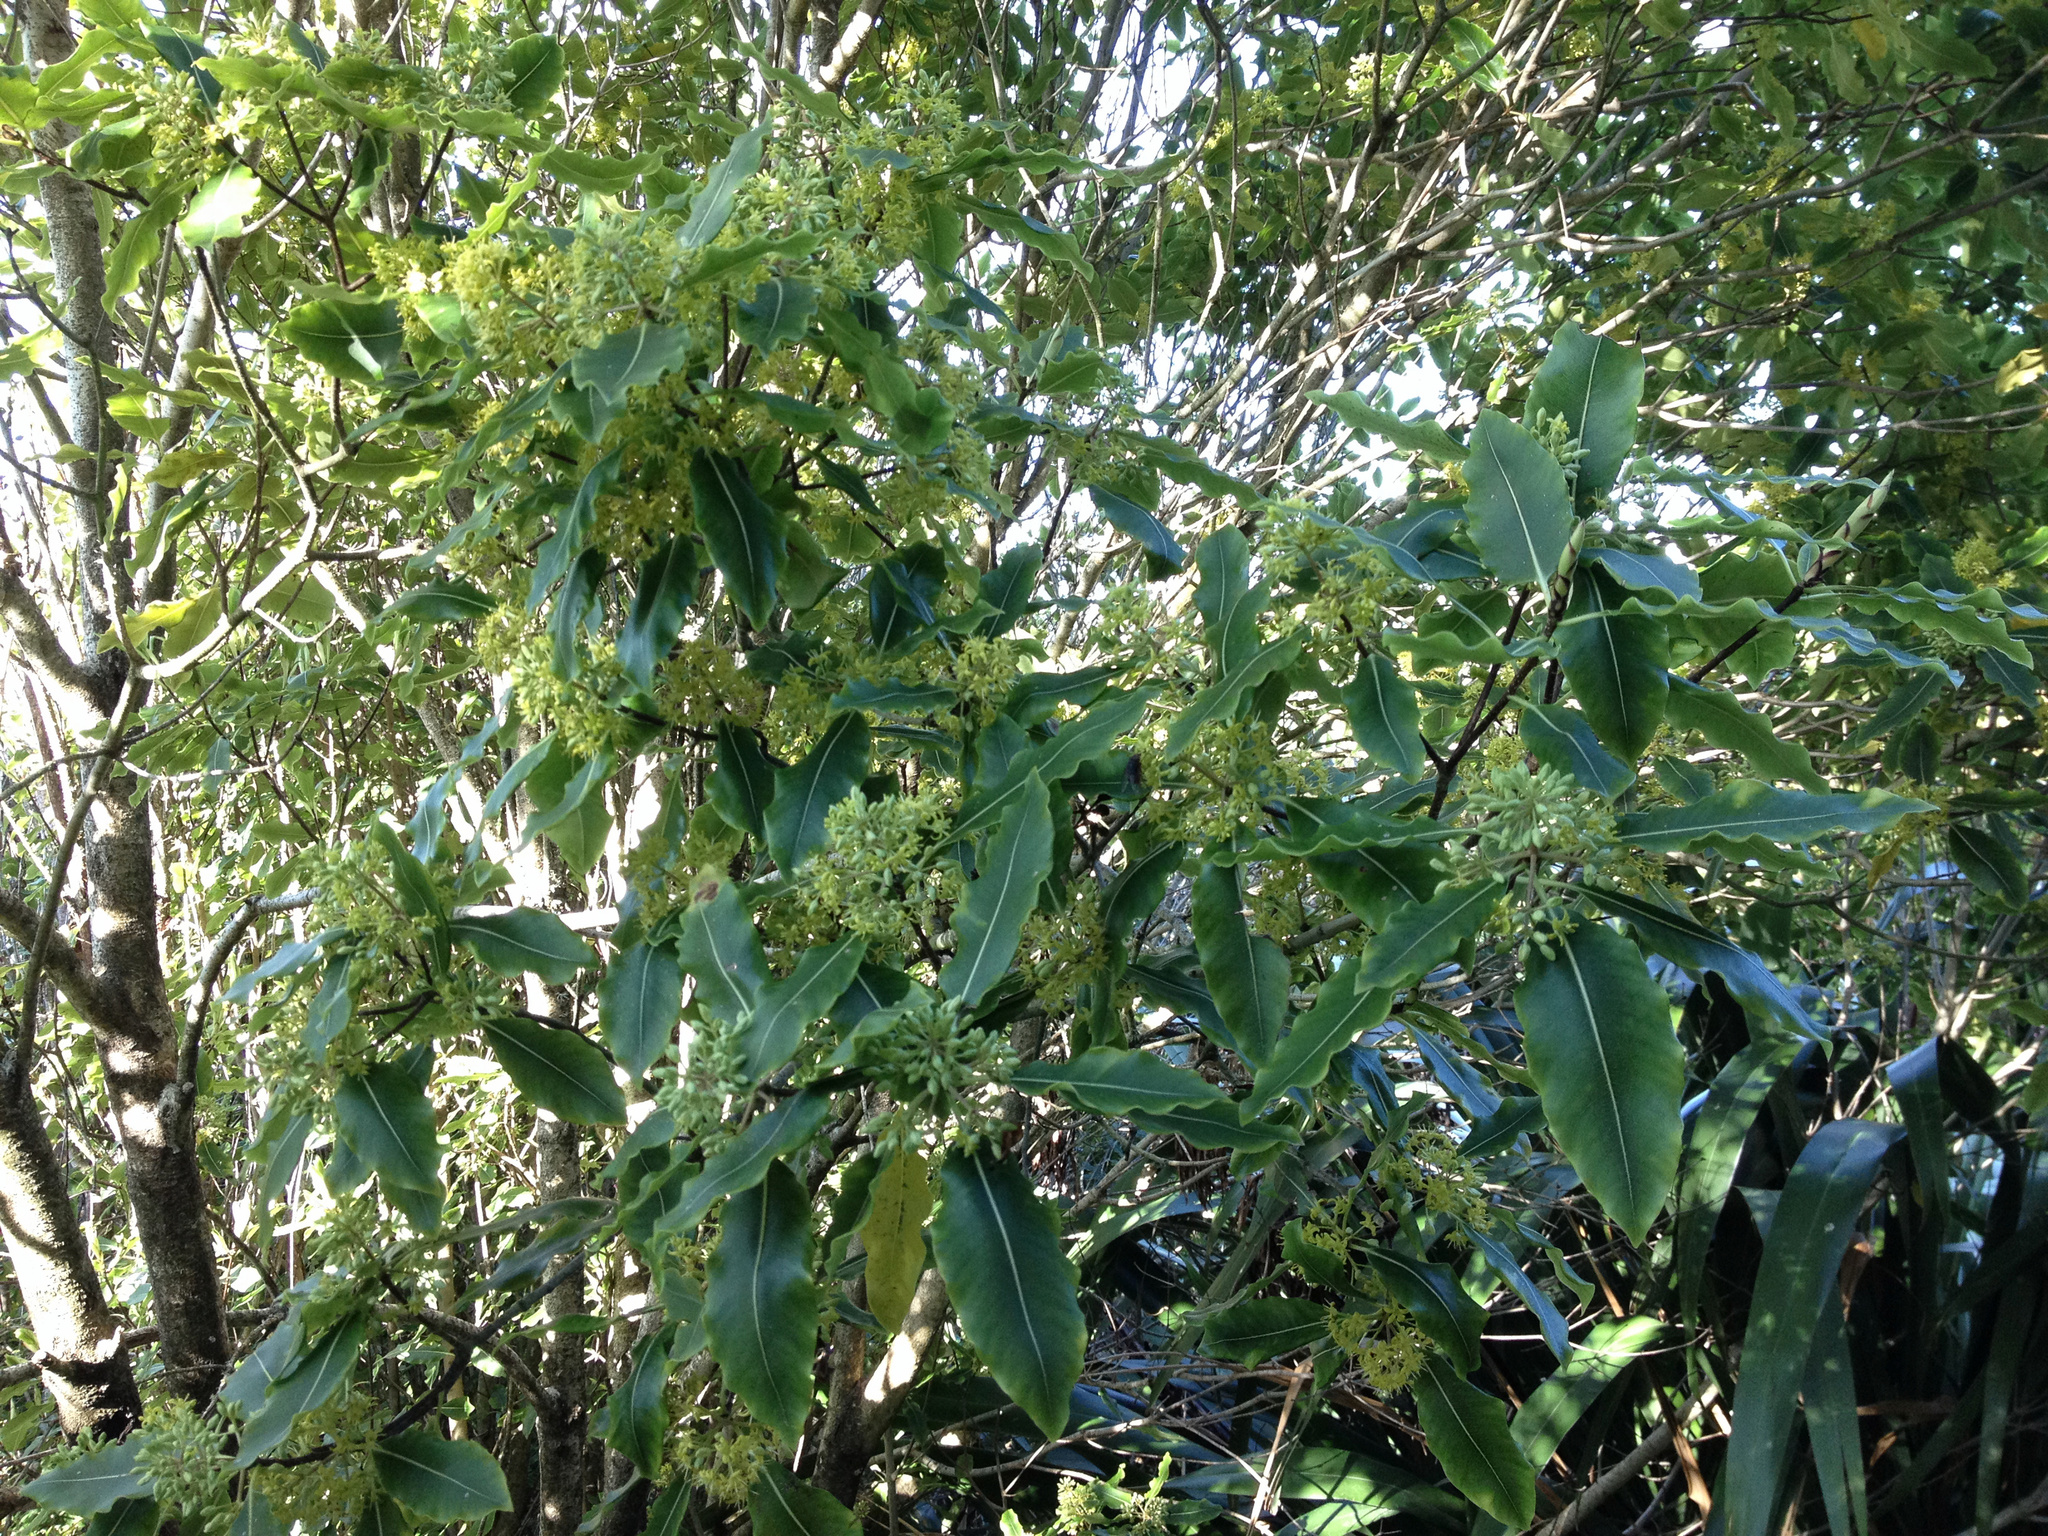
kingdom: Plantae
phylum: Tracheophyta
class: Magnoliopsida
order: Apiales
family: Pittosporaceae
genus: Pittosporum
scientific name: Pittosporum eugenioides
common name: Lemonwood
